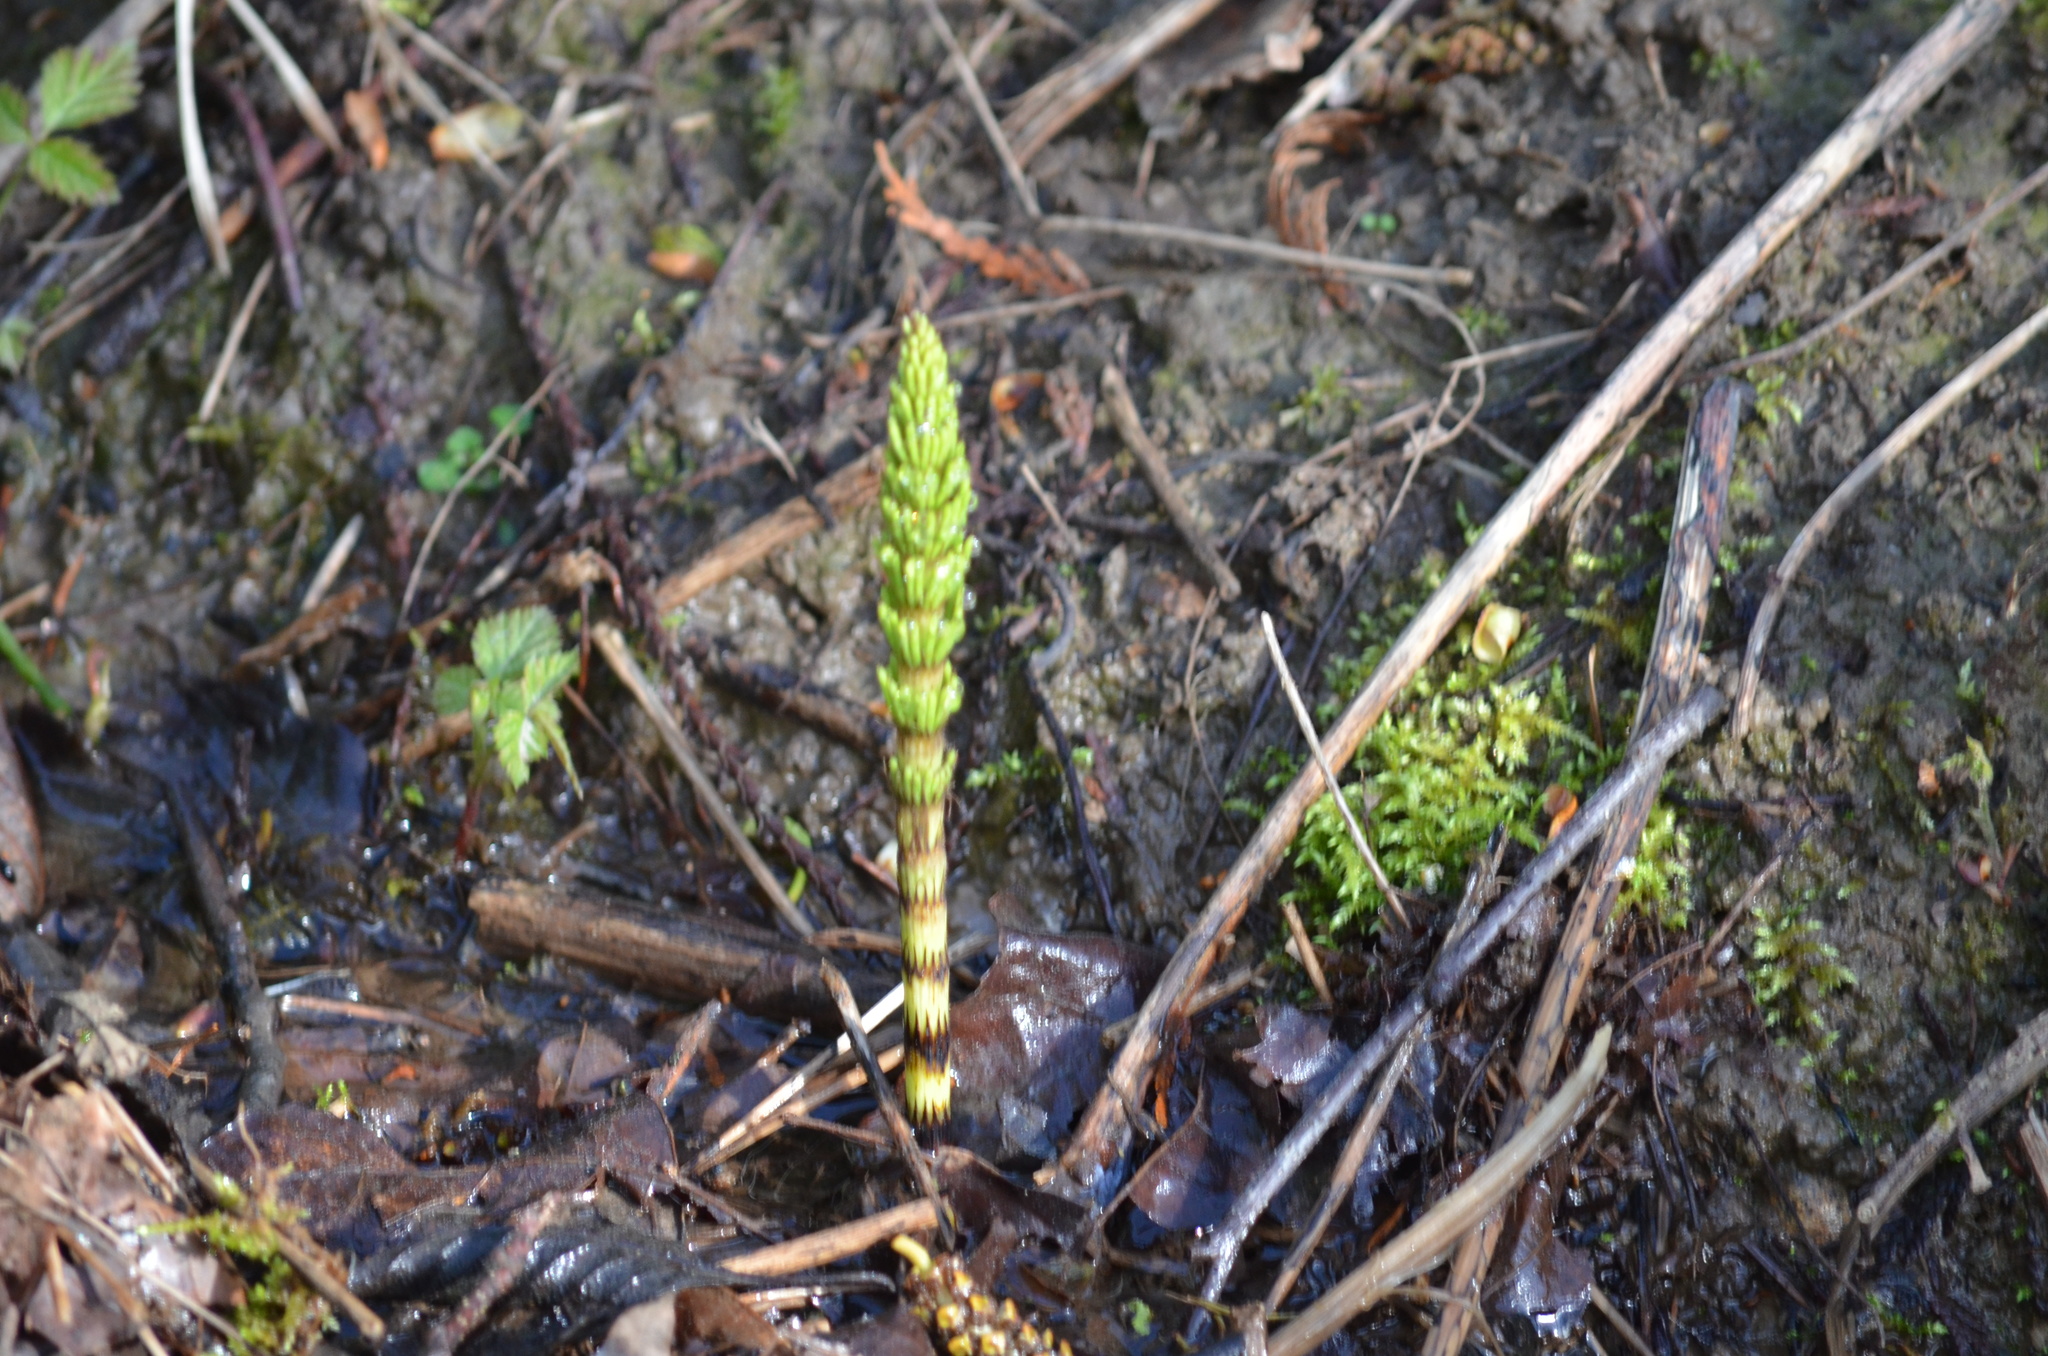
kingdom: Plantae
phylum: Tracheophyta
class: Polypodiopsida
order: Equisetales
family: Equisetaceae
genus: Equisetum
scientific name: Equisetum braunii
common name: Braun's horsetail
